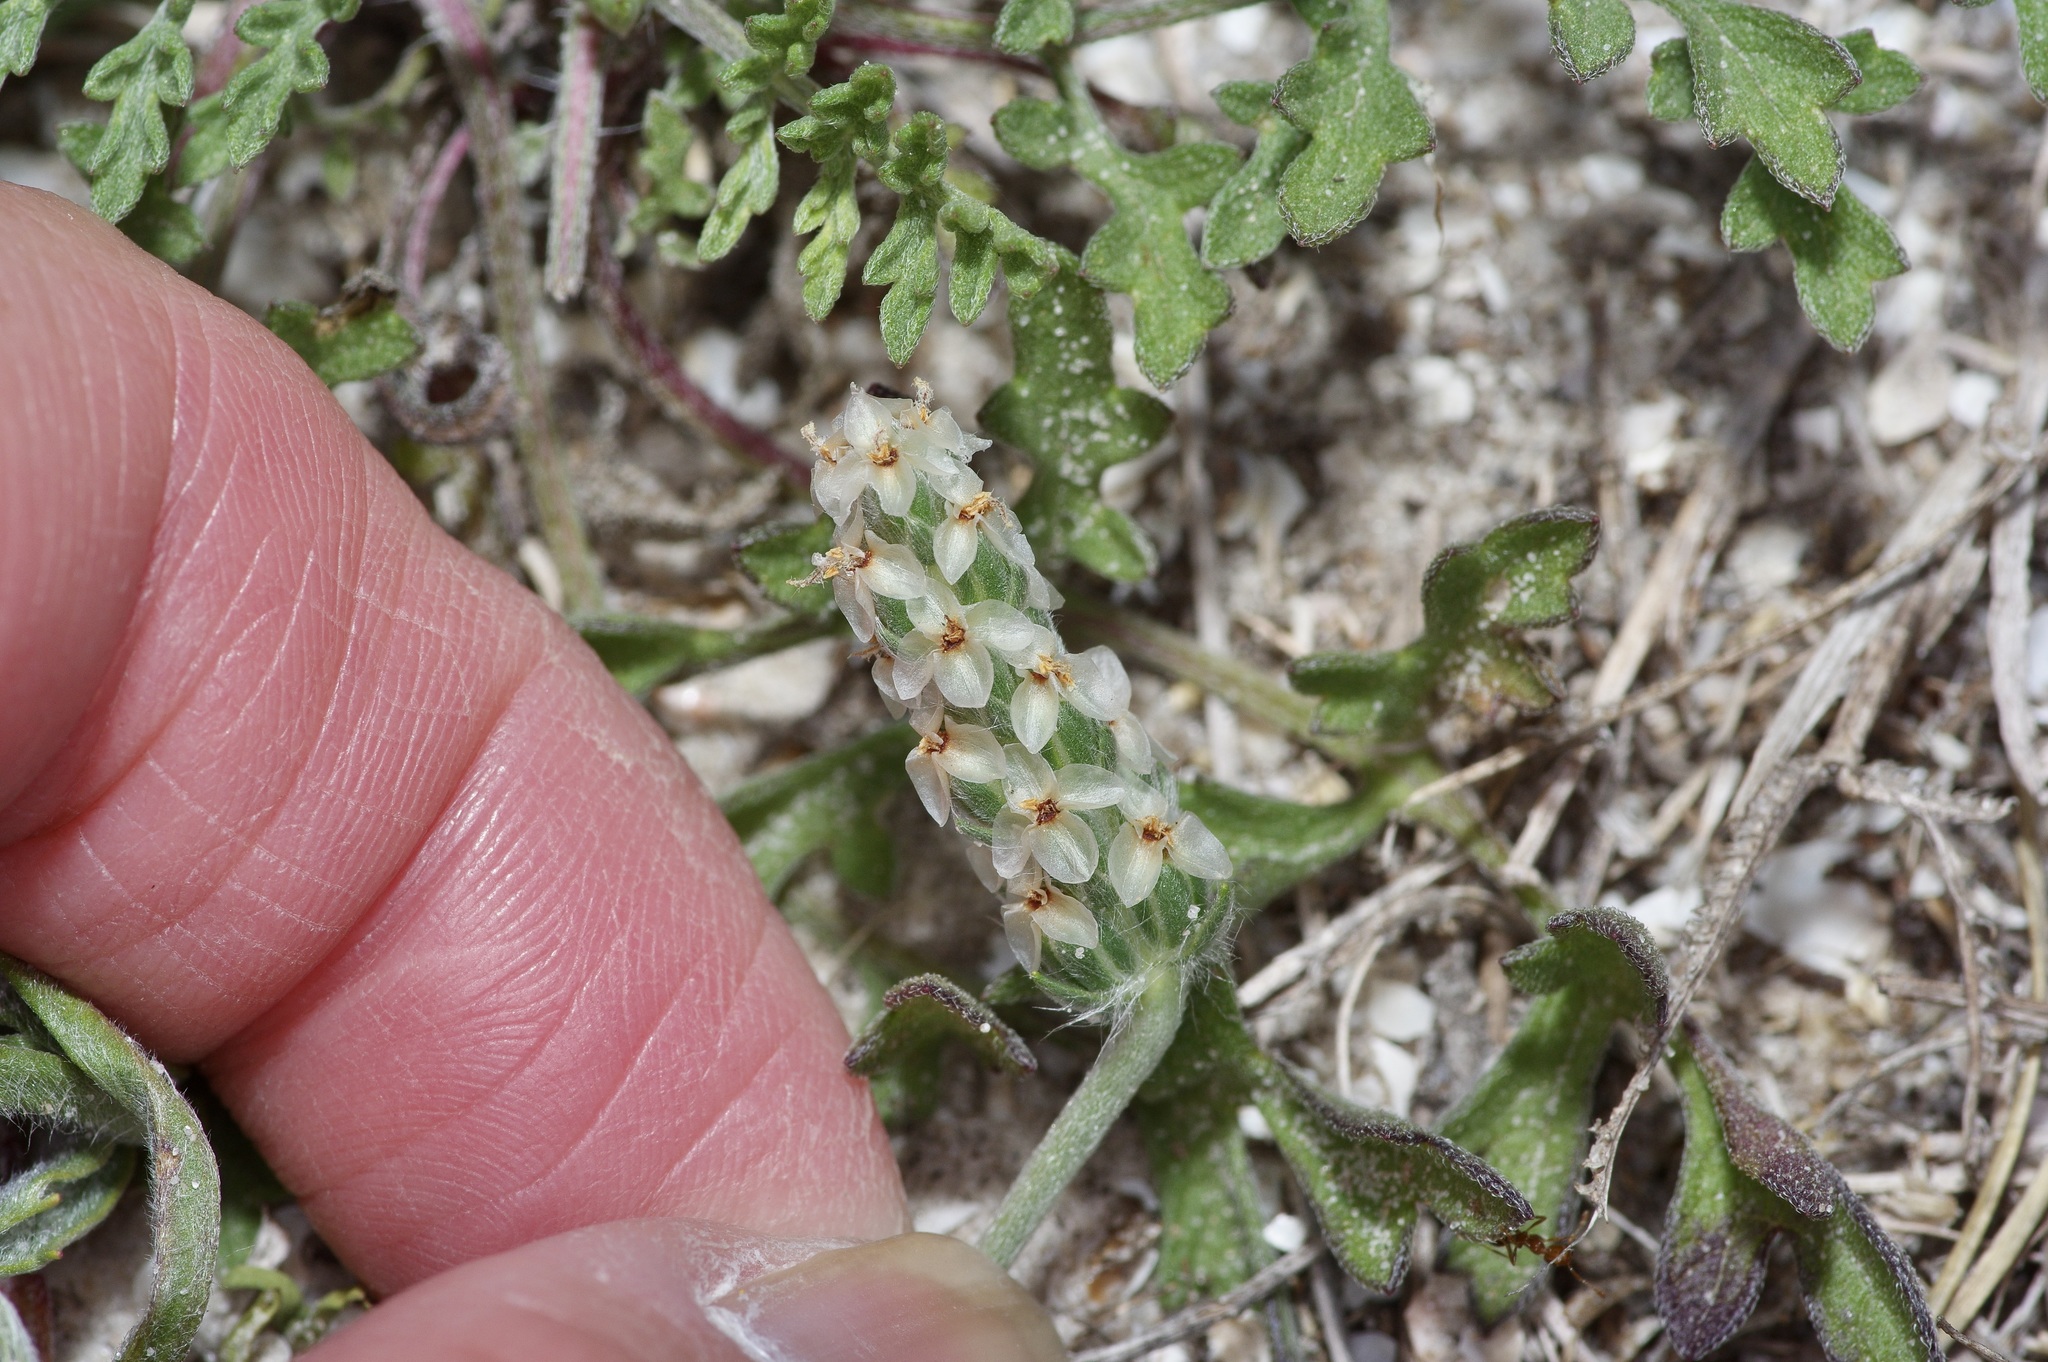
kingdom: Plantae
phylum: Tracheophyta
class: Magnoliopsida
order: Lamiales
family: Plantaginaceae
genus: Plantago
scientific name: Plantago helleri
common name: Heller's plantain
